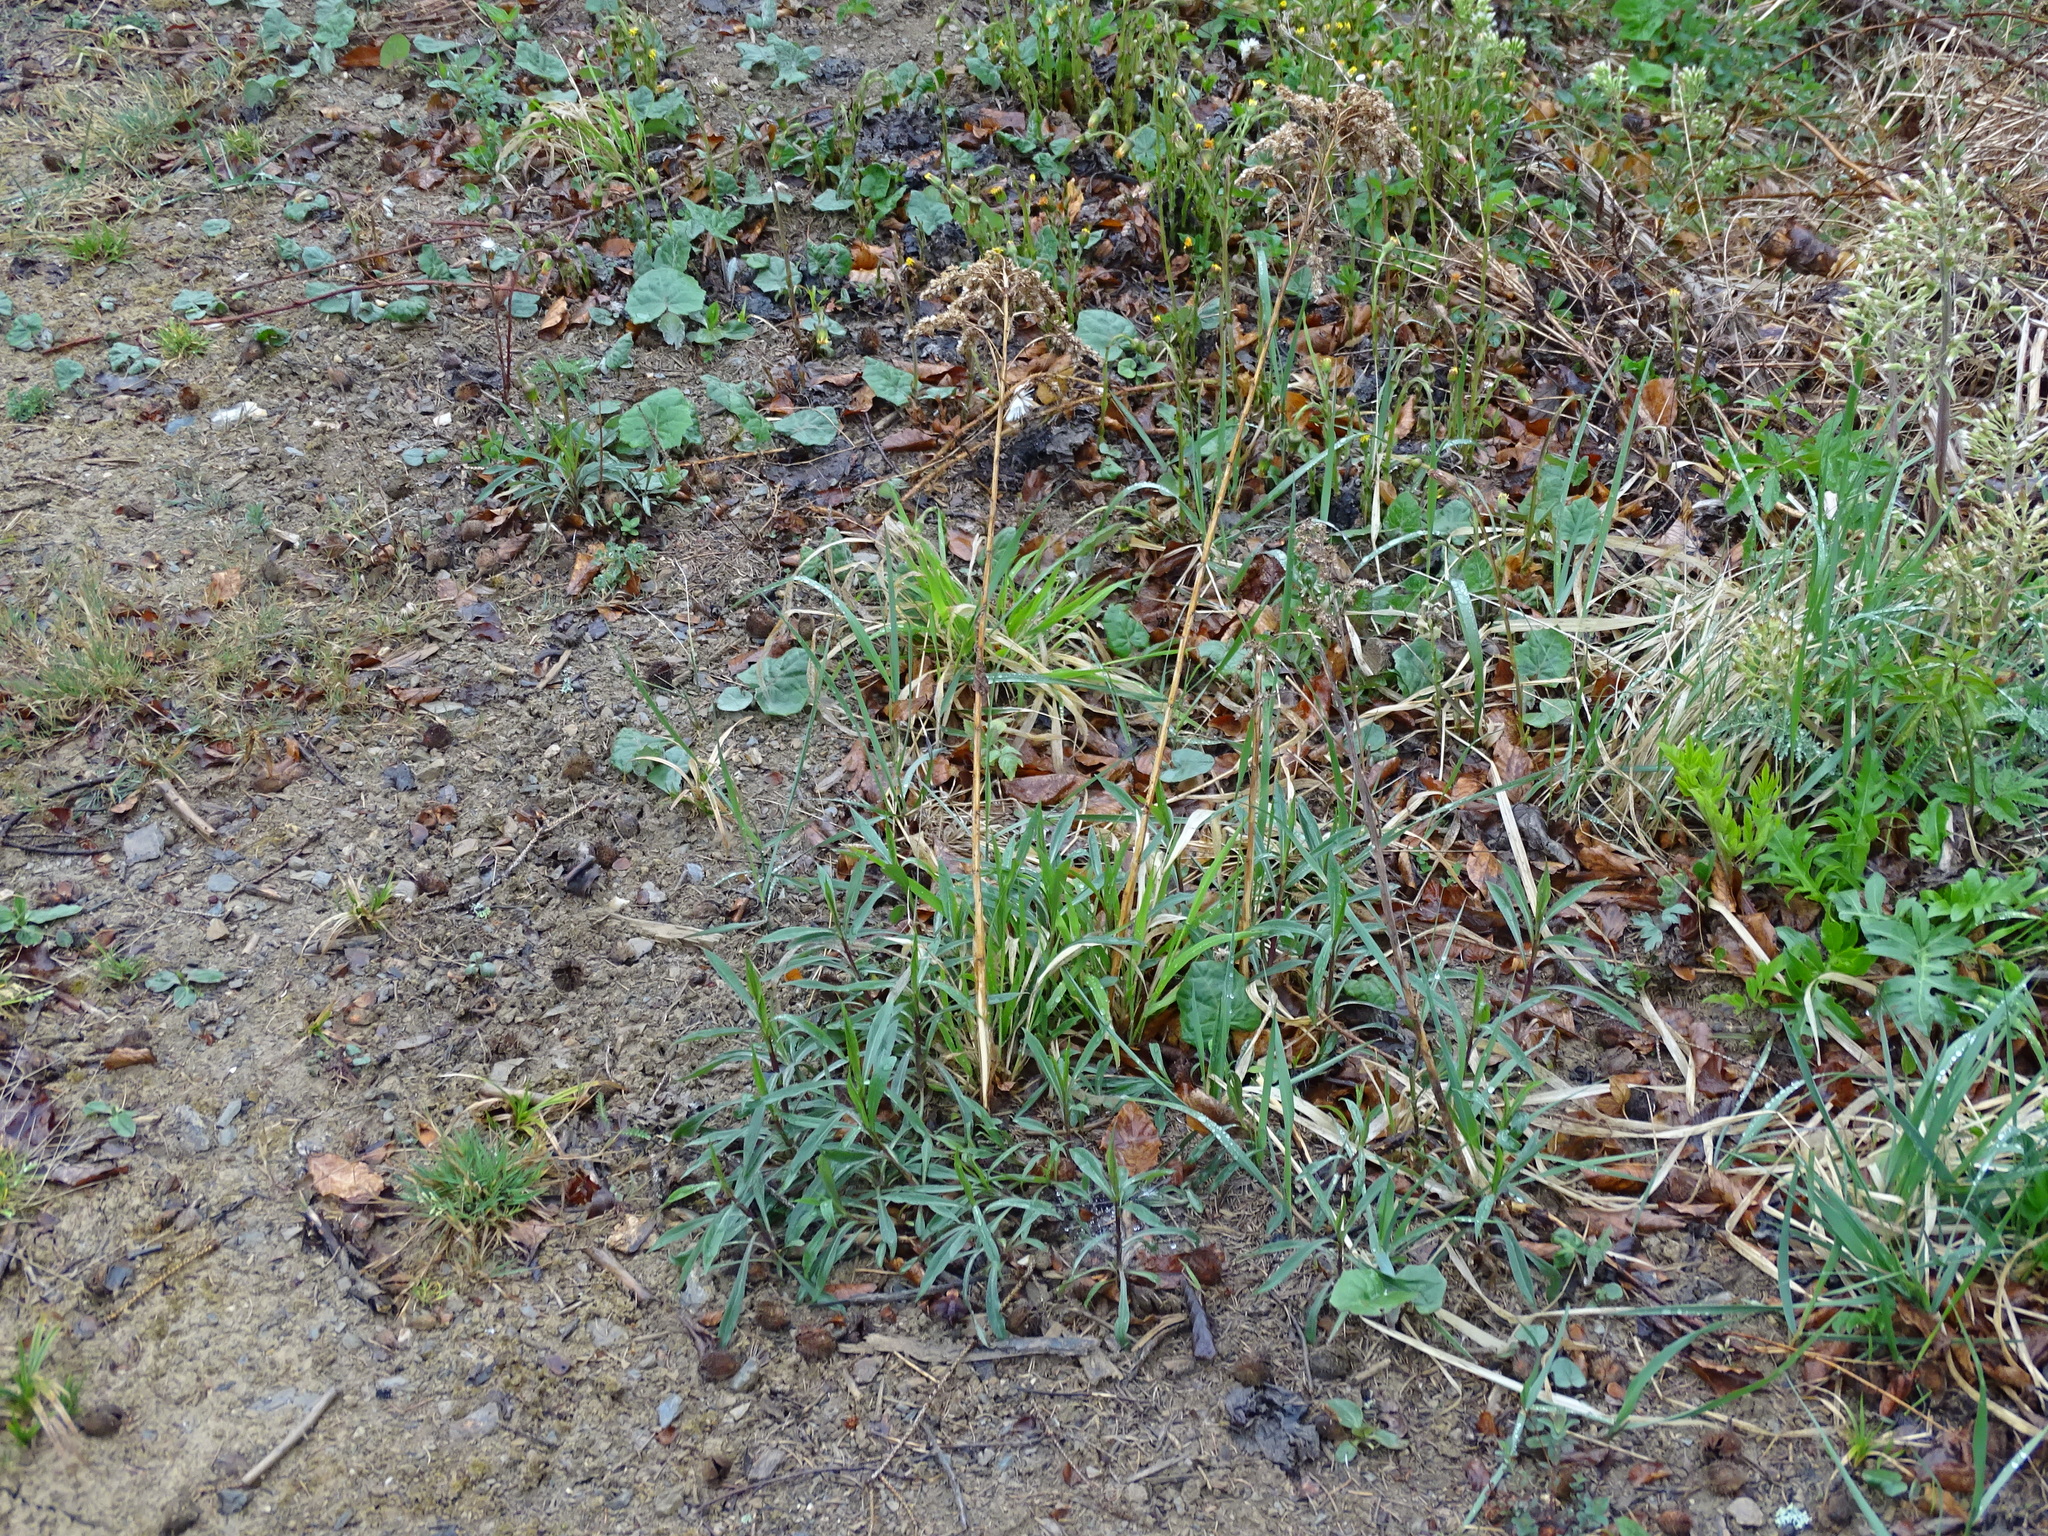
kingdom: Plantae
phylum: Tracheophyta
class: Magnoliopsida
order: Asterales
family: Asteraceae
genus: Solidago
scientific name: Solidago gigantea
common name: Giant goldenrod
